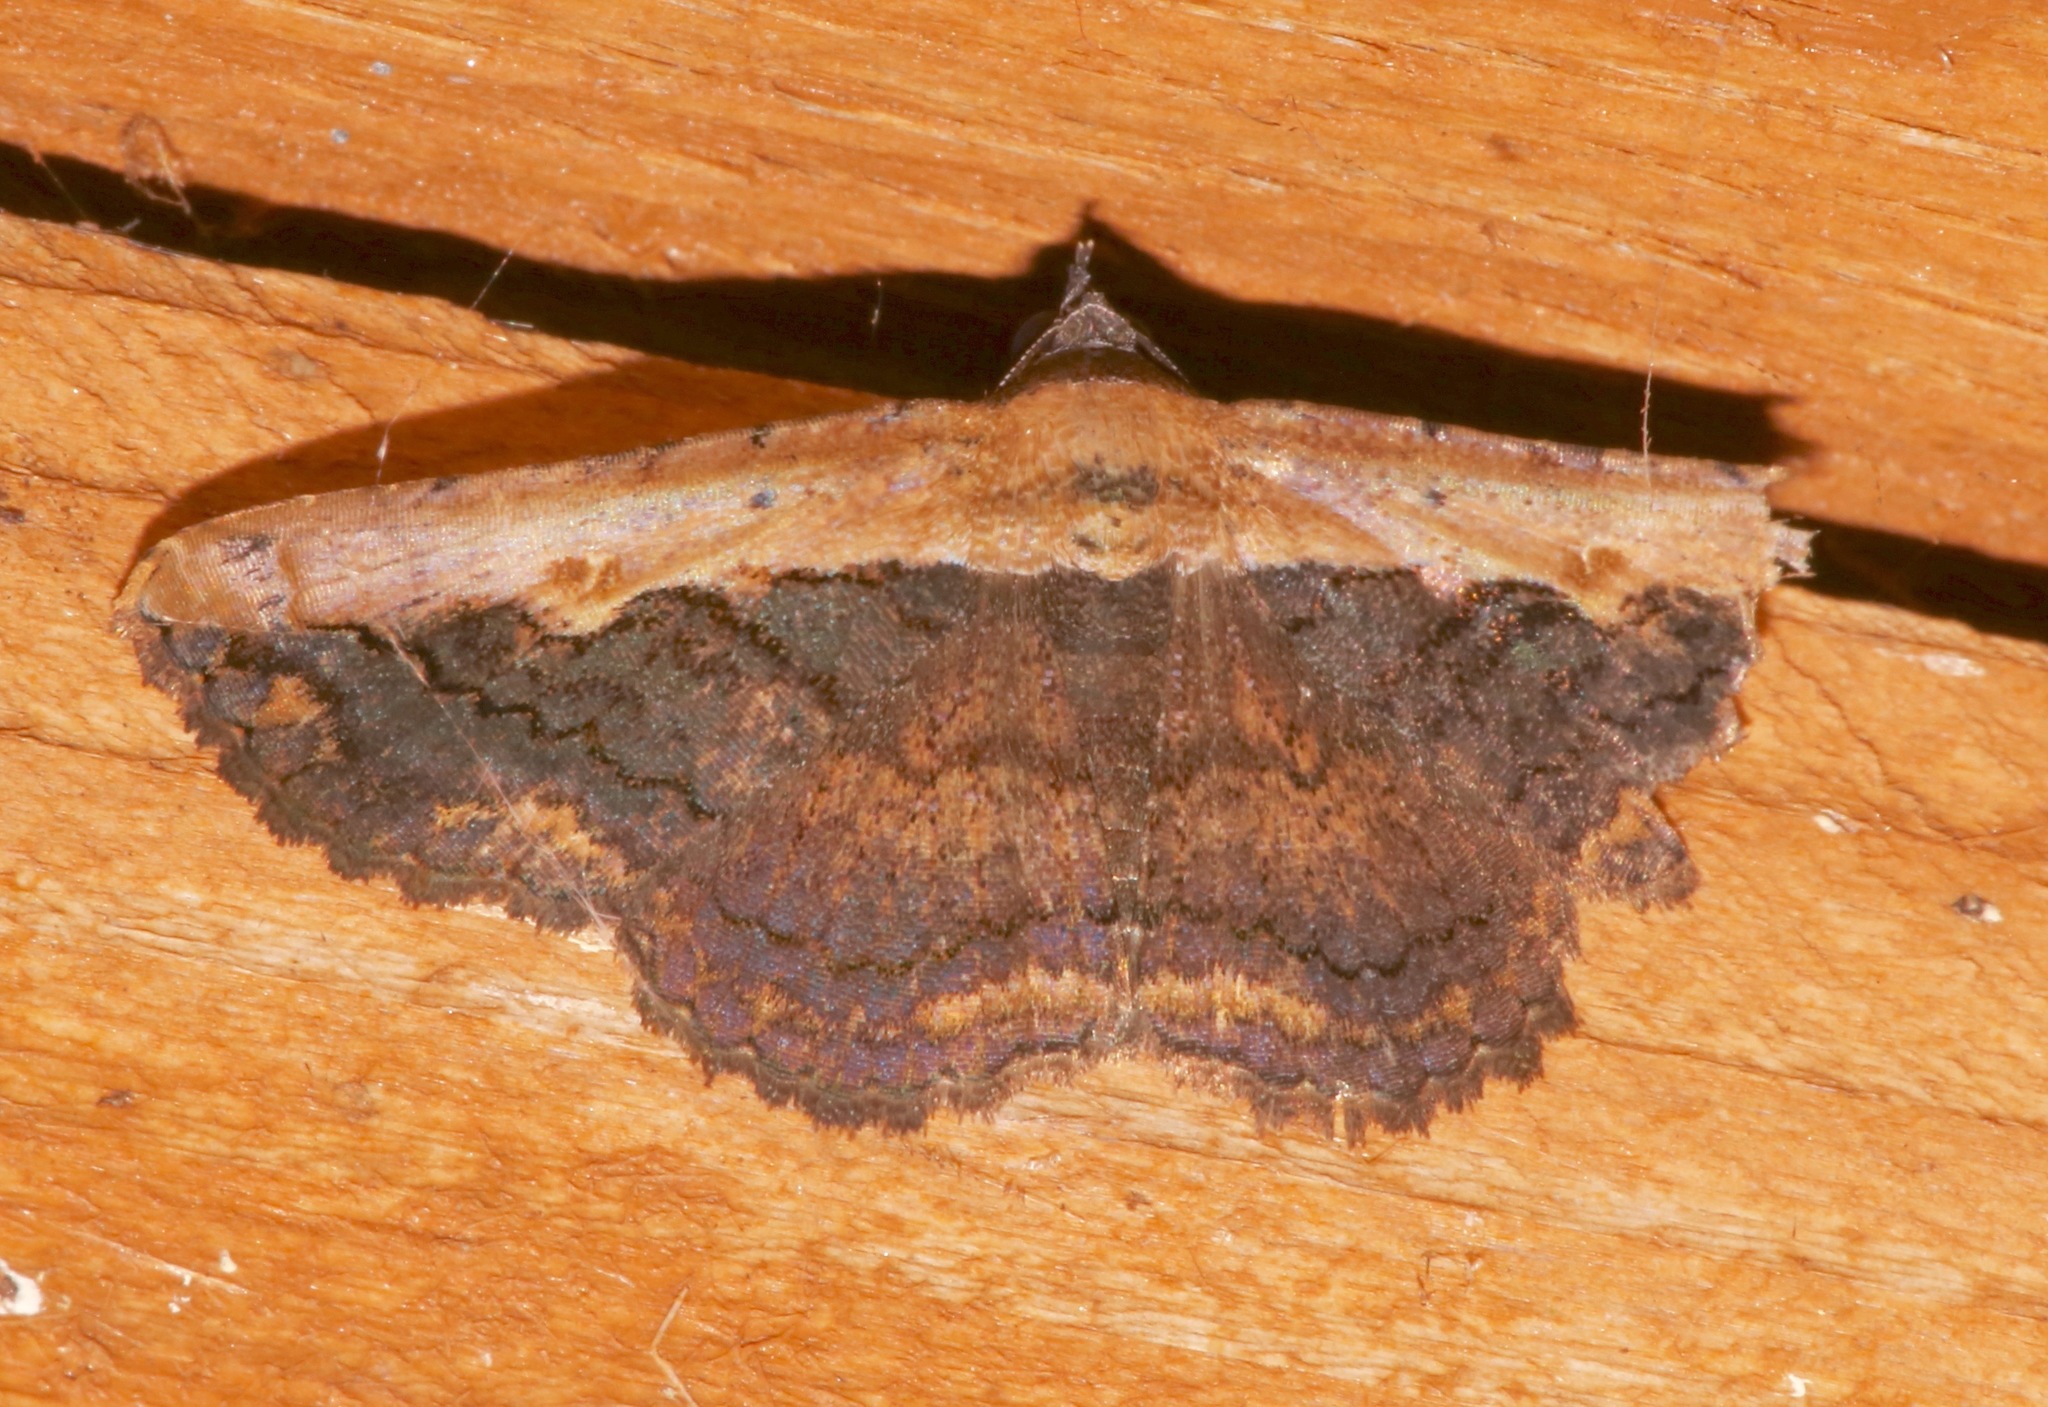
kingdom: Animalia
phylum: Arthropoda
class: Insecta
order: Lepidoptera
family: Erebidae
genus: Selenisa
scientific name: Selenisa sueroides
